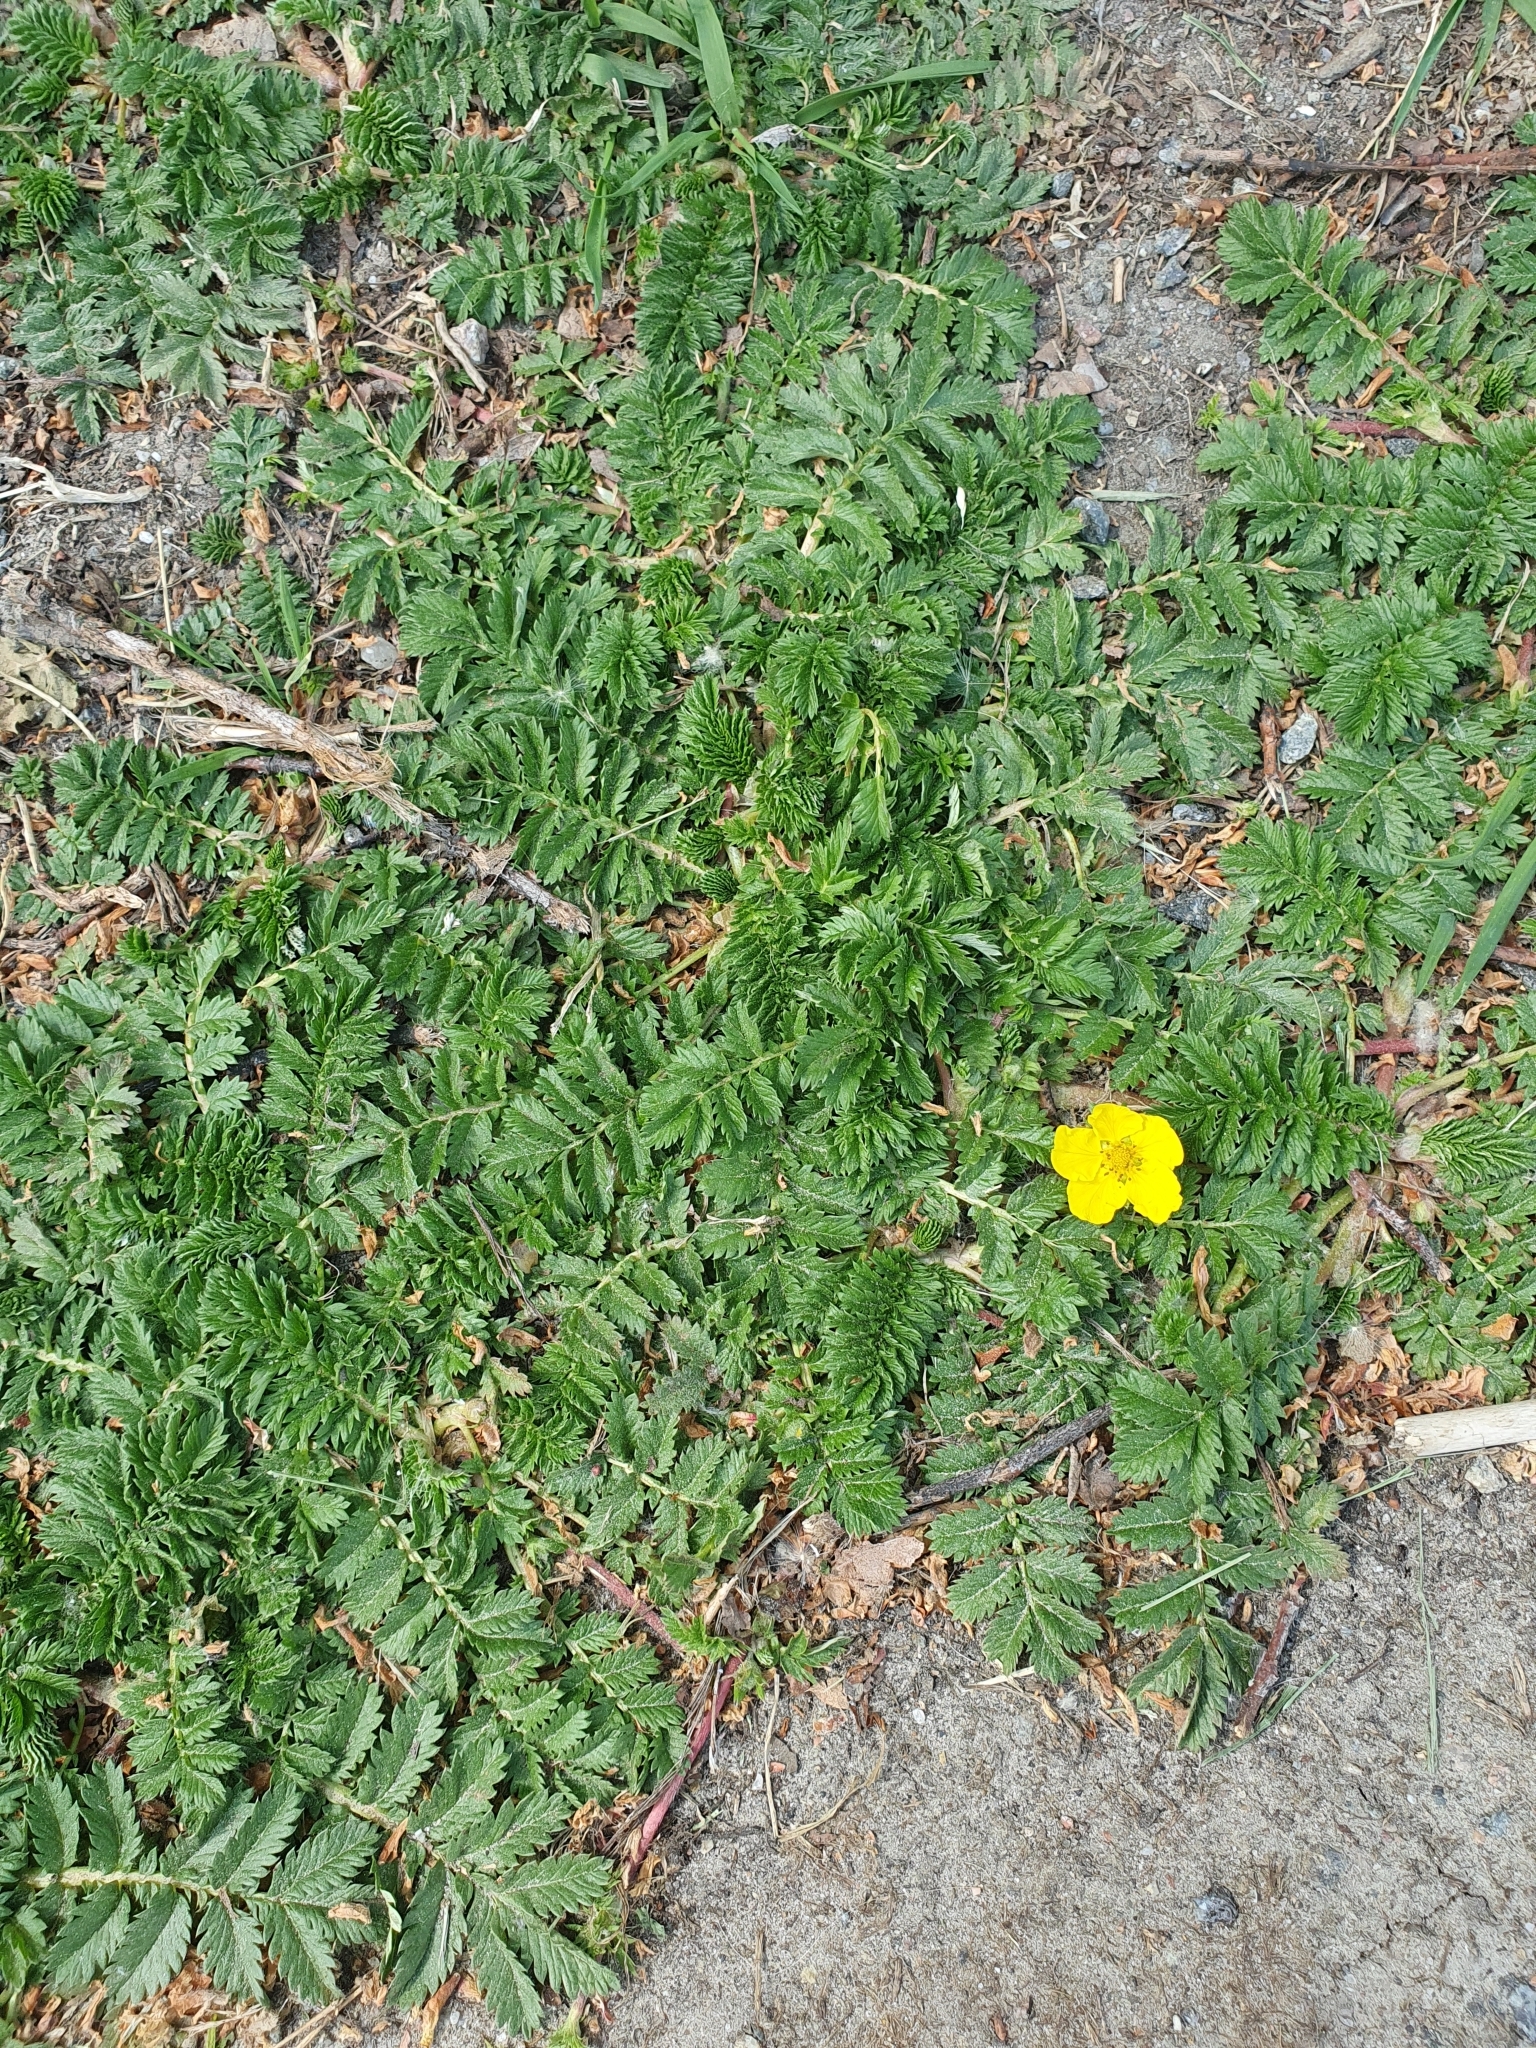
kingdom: Plantae
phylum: Tracheophyta
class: Magnoliopsida
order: Rosales
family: Rosaceae
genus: Argentina
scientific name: Argentina anserina
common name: Common silverweed
